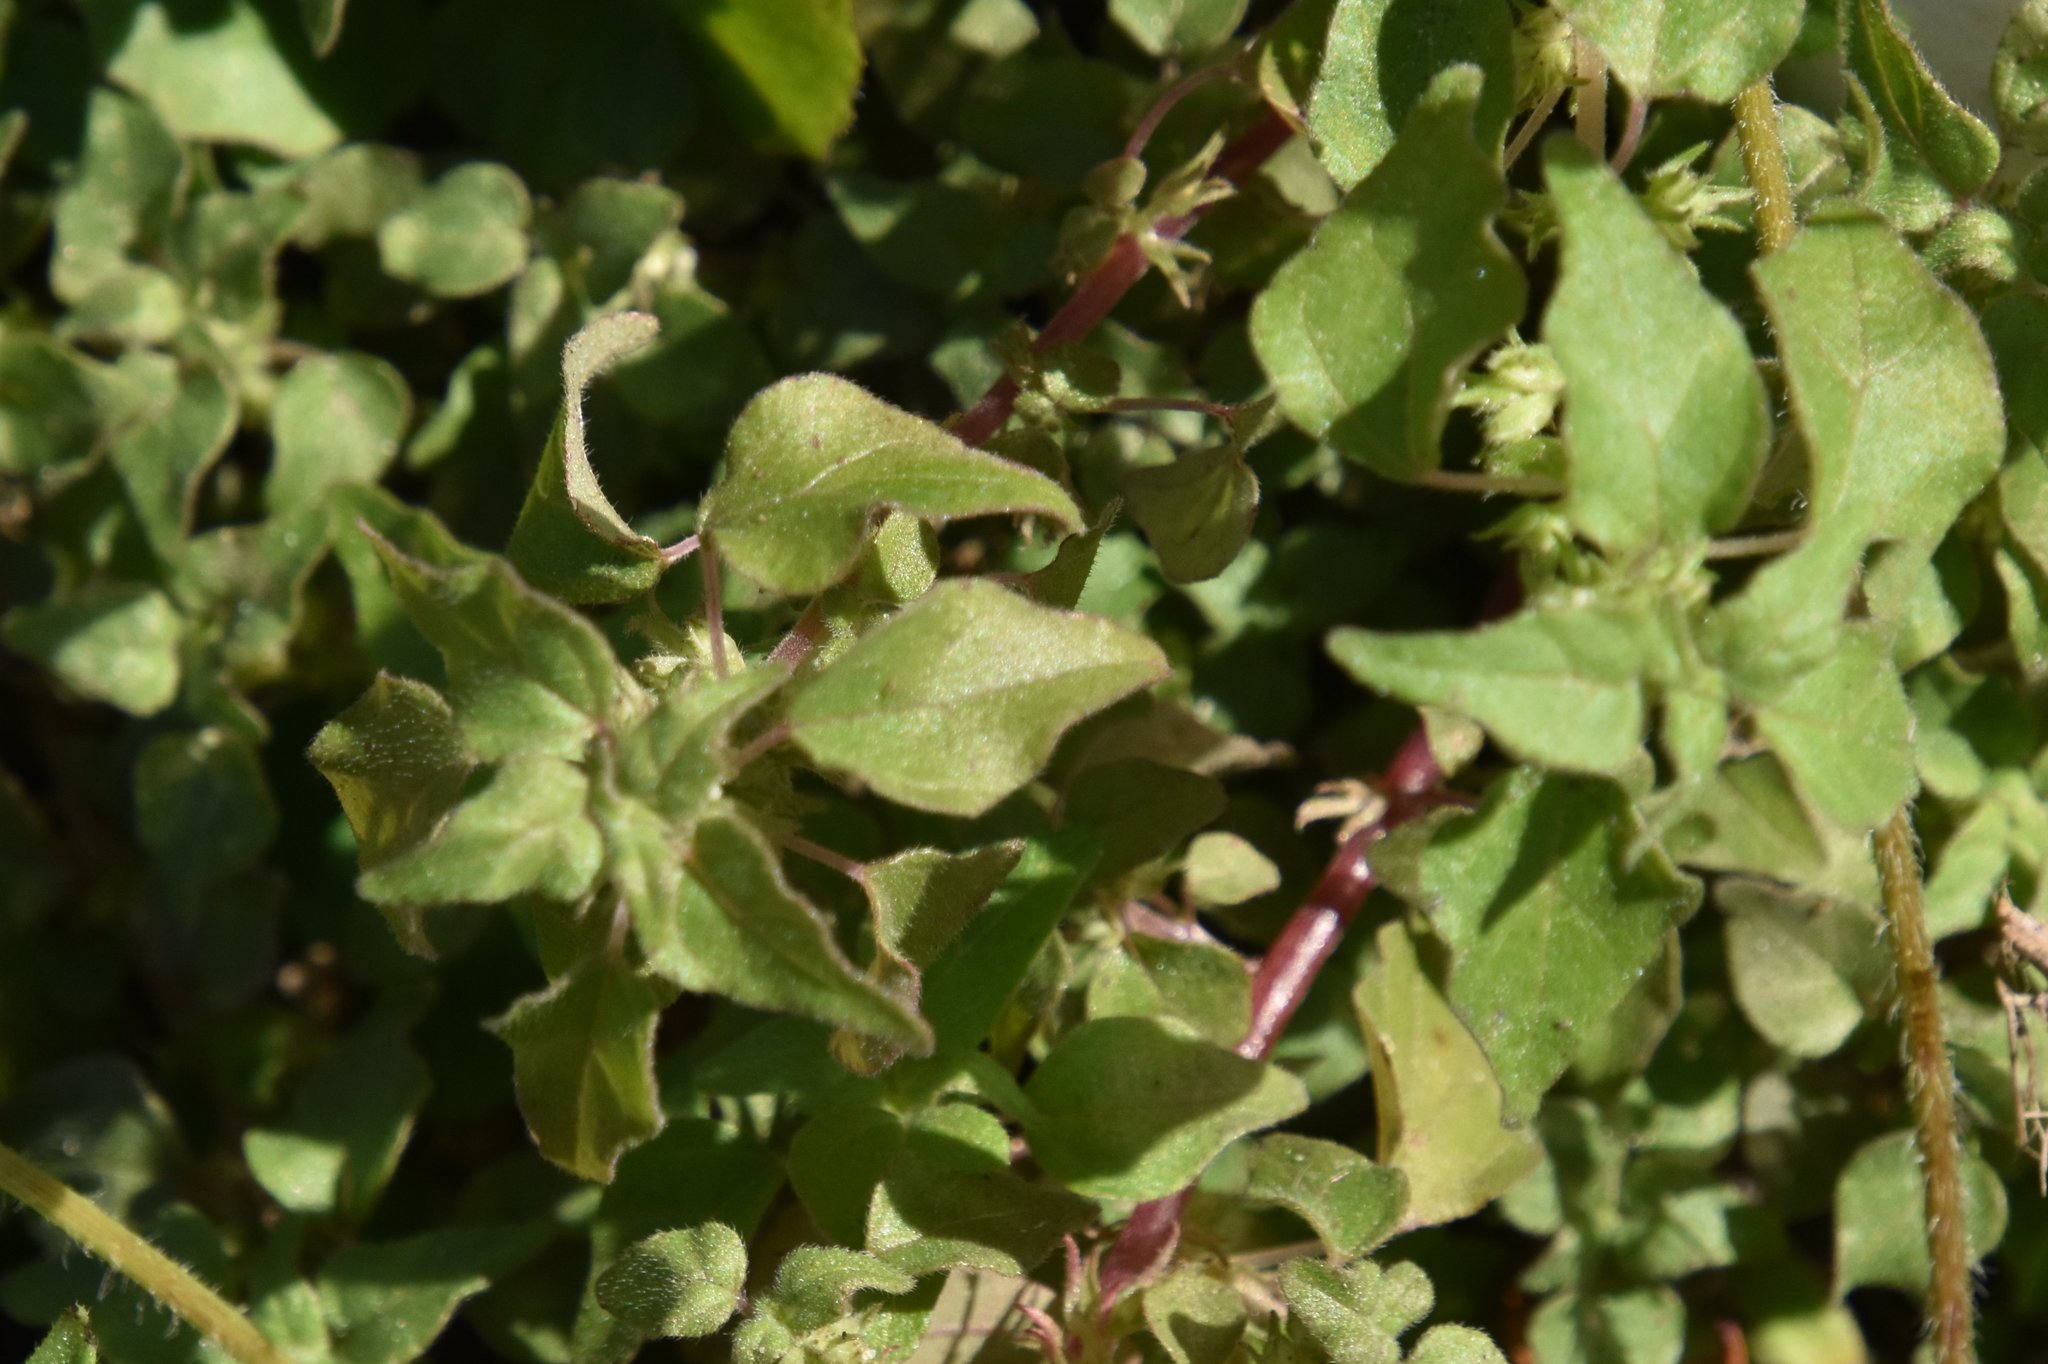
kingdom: Plantae
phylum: Tracheophyta
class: Magnoliopsida
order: Asterales
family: Asteraceae
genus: Tridax
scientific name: Tridax procumbens
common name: Coatbuttons
